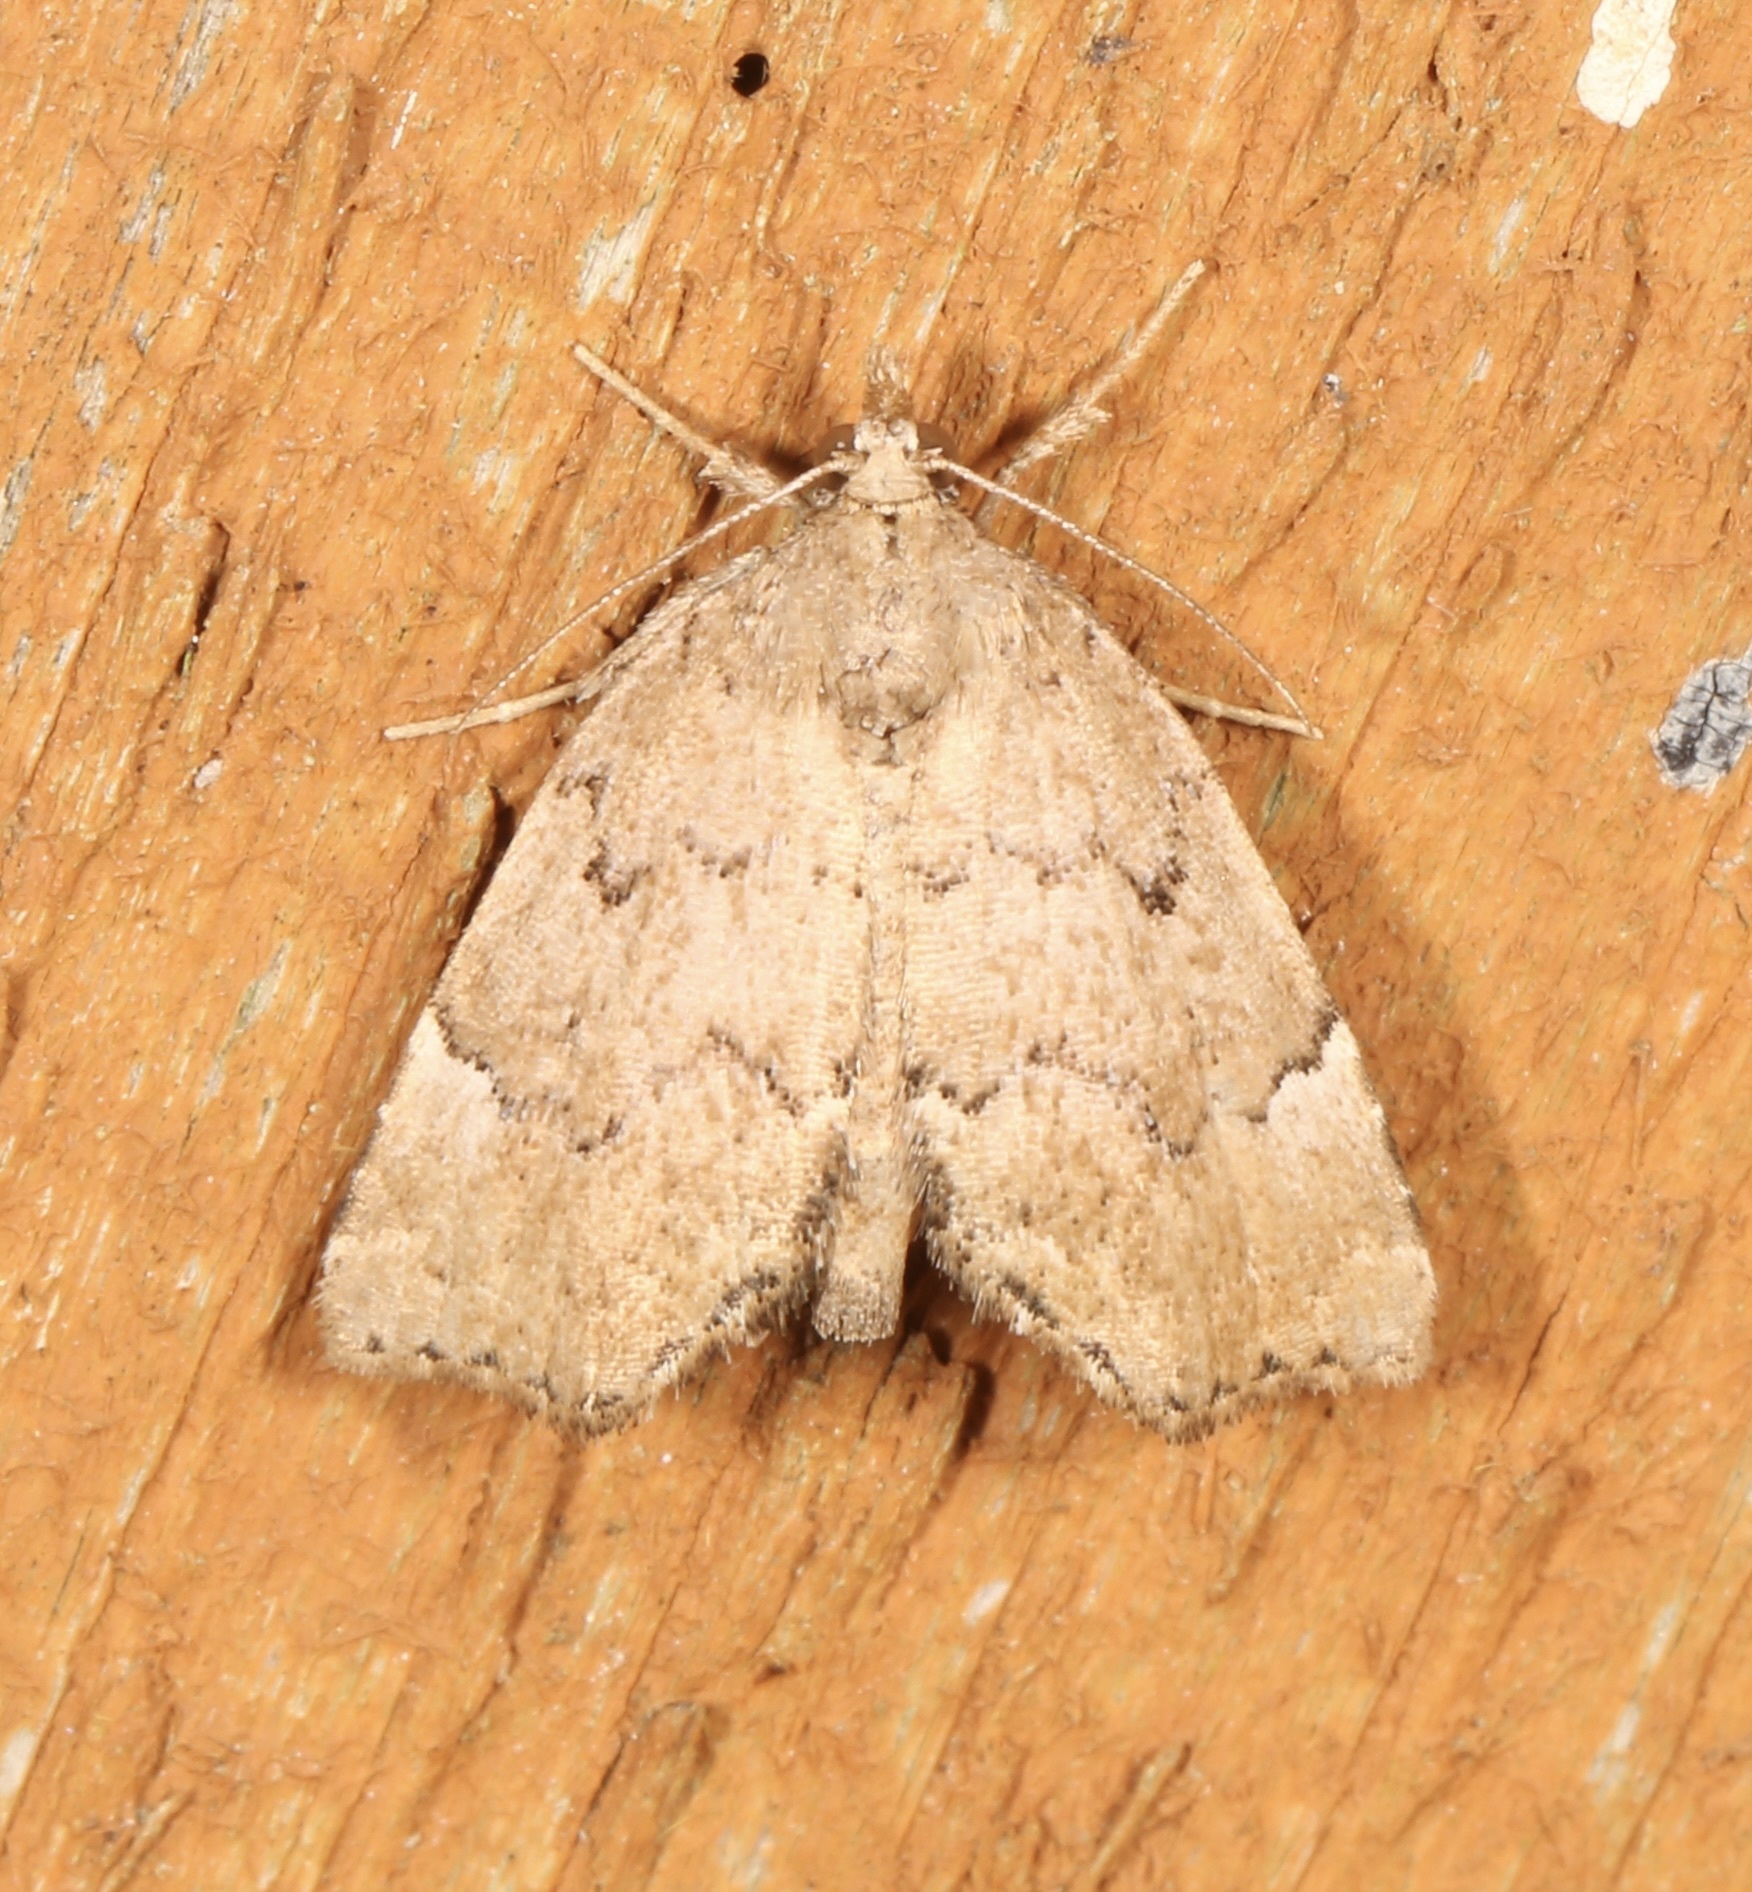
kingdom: Animalia
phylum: Arthropoda
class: Insecta
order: Lepidoptera
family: Erebidae
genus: Cutina
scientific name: Cutina aluticolor
